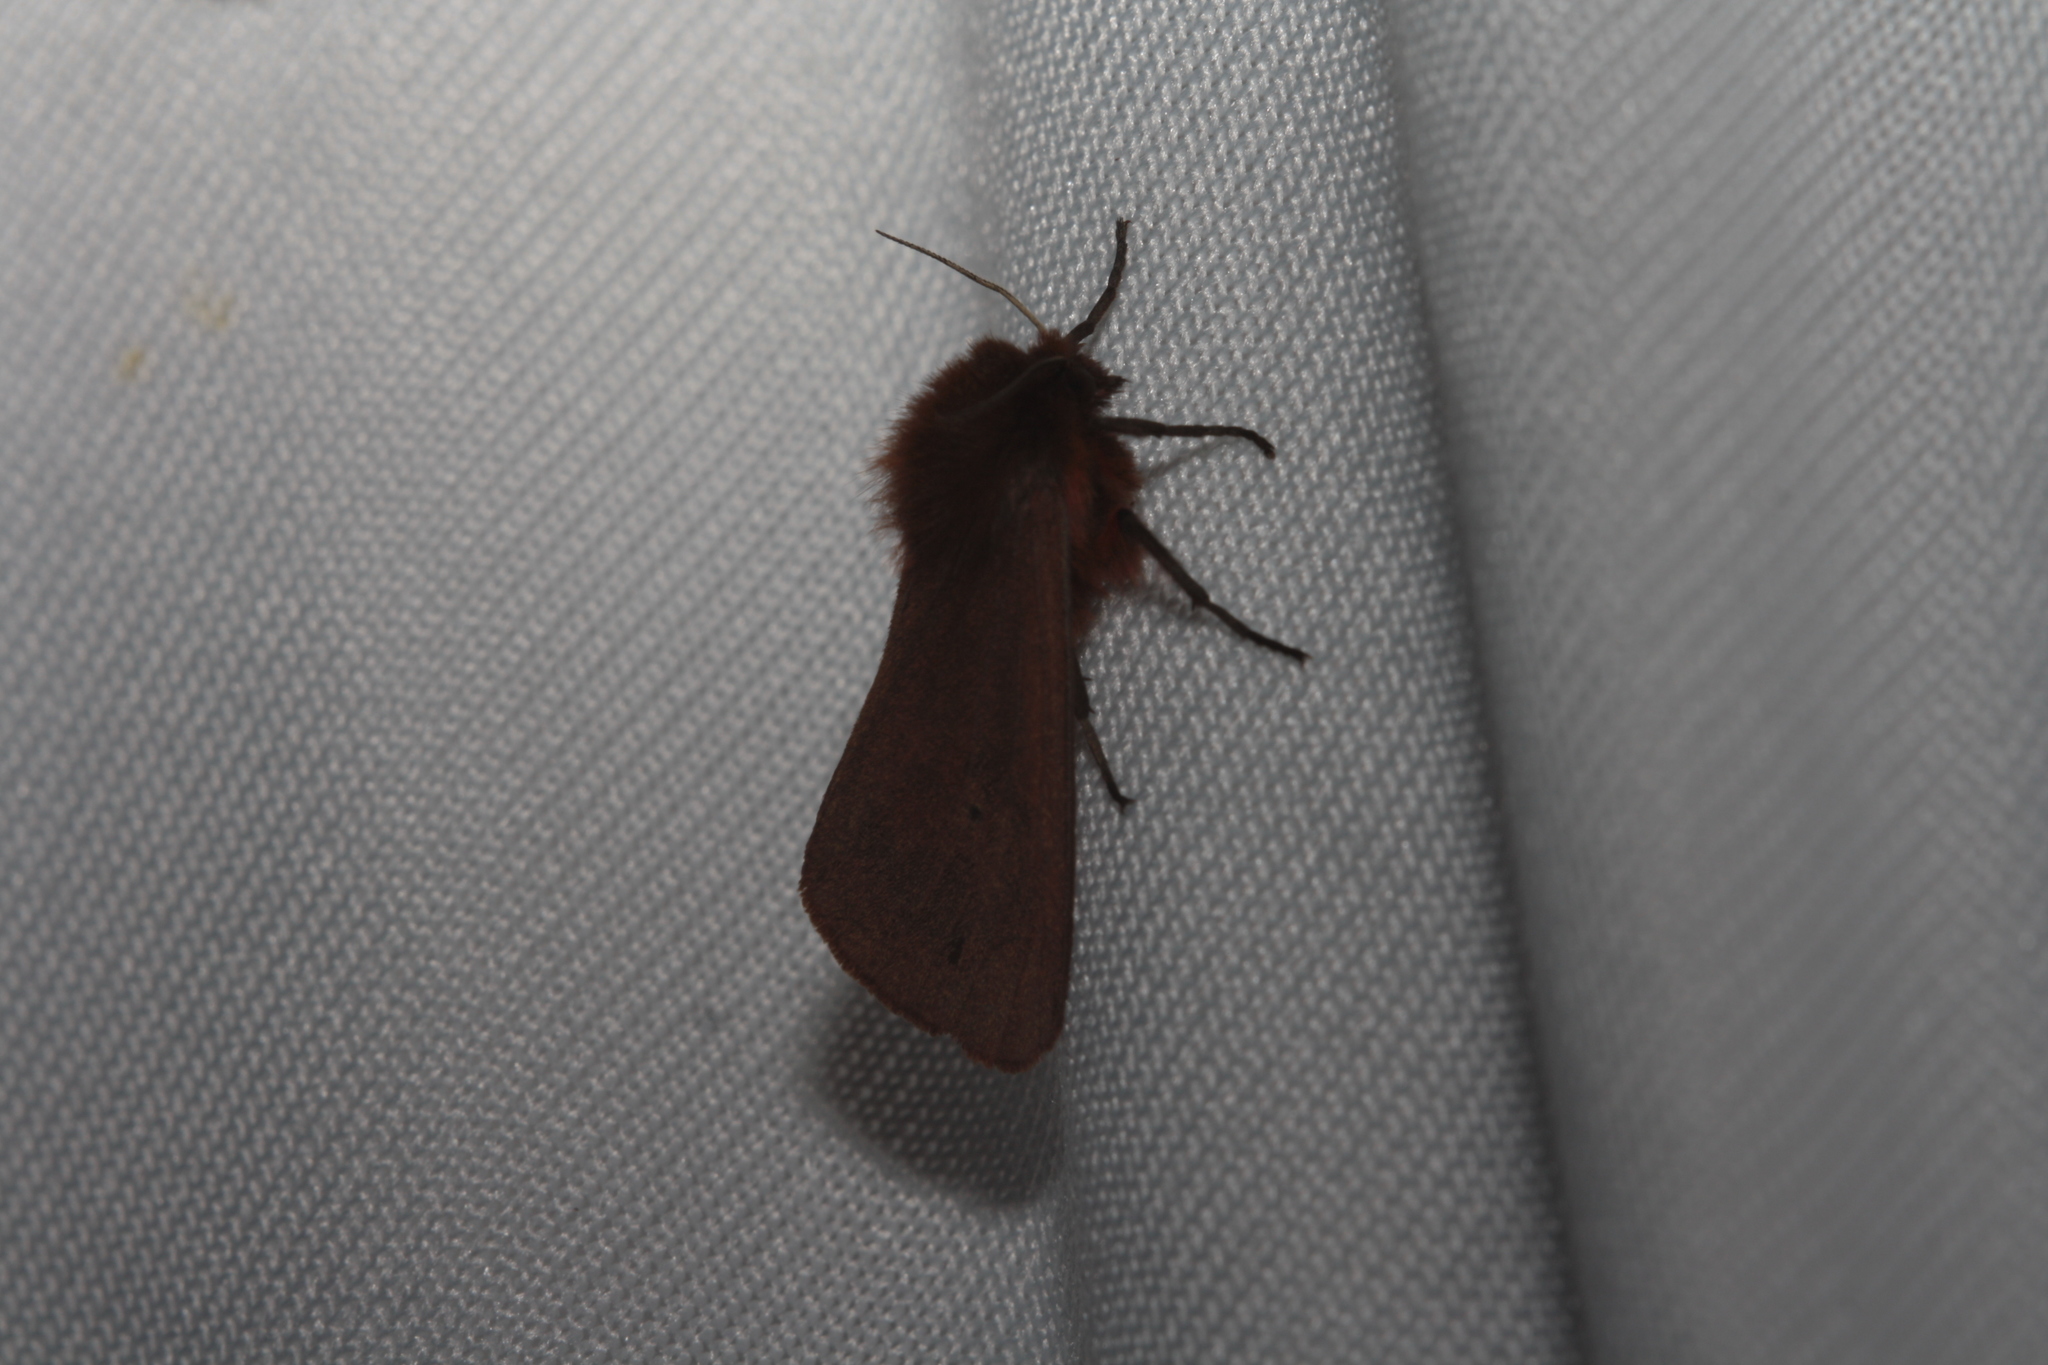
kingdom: Animalia
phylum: Arthropoda
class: Insecta
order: Lepidoptera
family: Erebidae
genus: Phragmatobia
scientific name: Phragmatobia fuliginosa
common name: Ruby tiger
